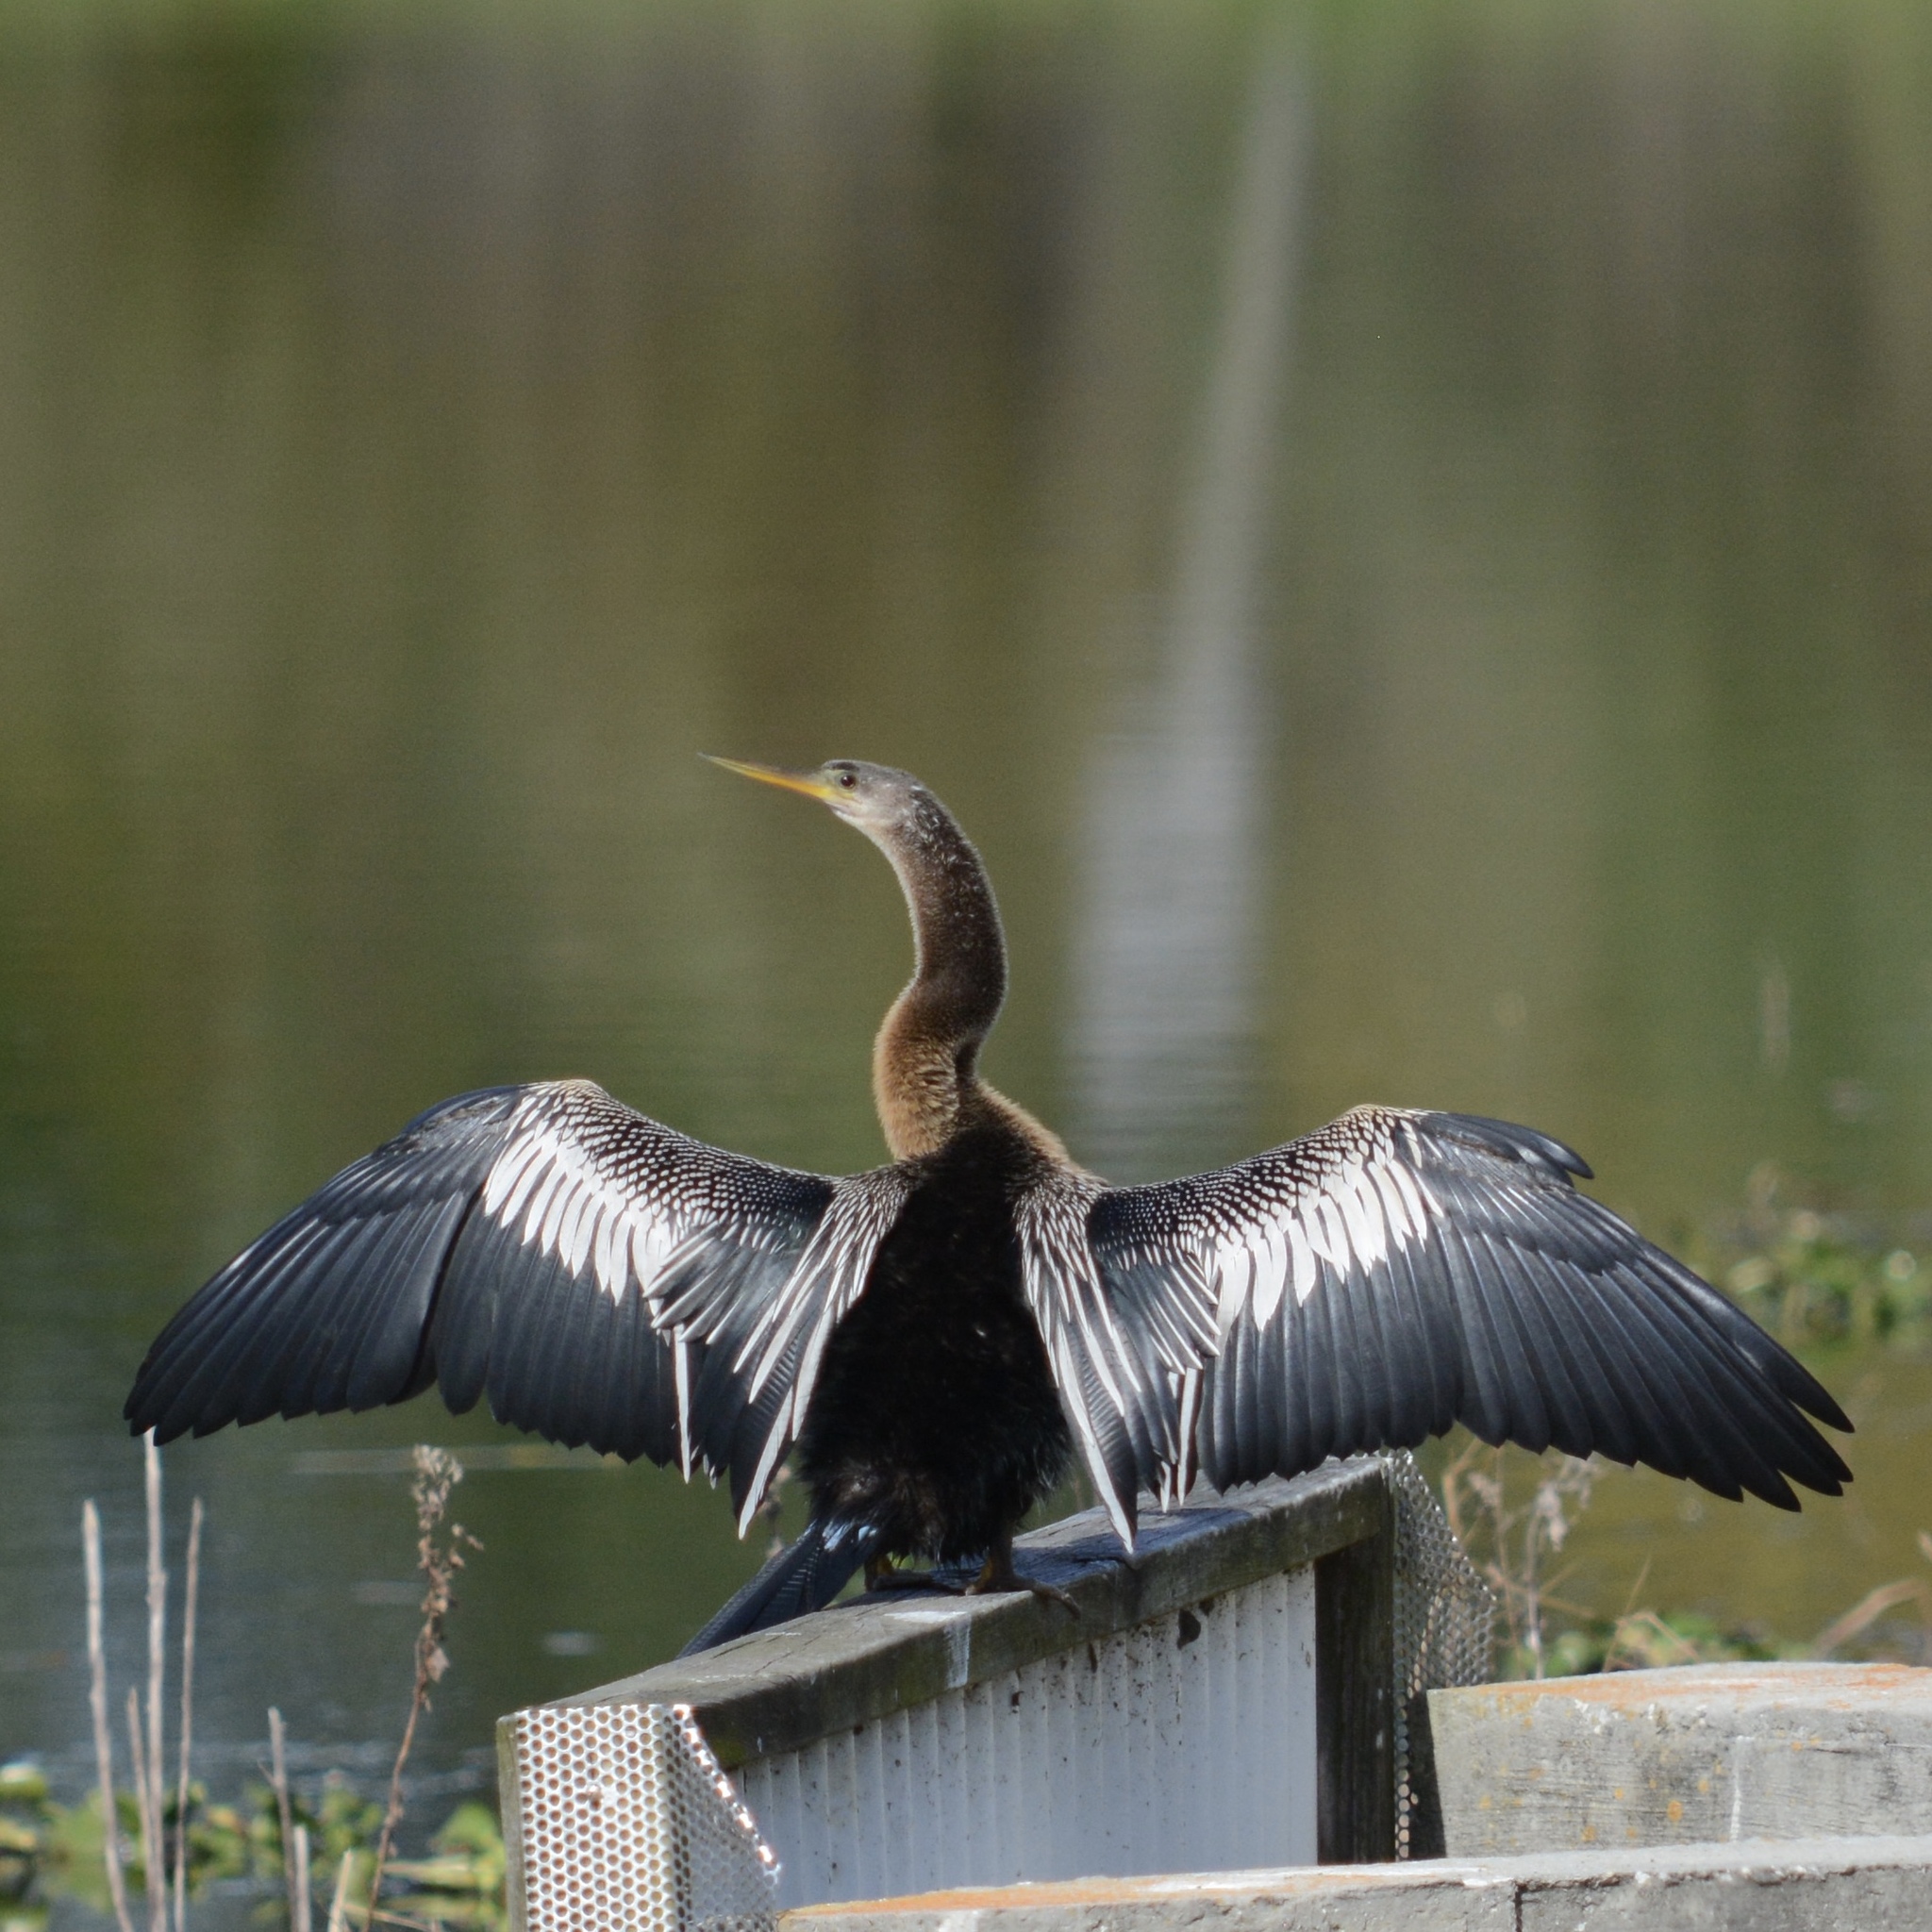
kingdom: Animalia
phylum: Chordata
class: Aves
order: Suliformes
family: Anhingidae
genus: Anhinga
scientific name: Anhinga anhinga
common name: Anhinga
